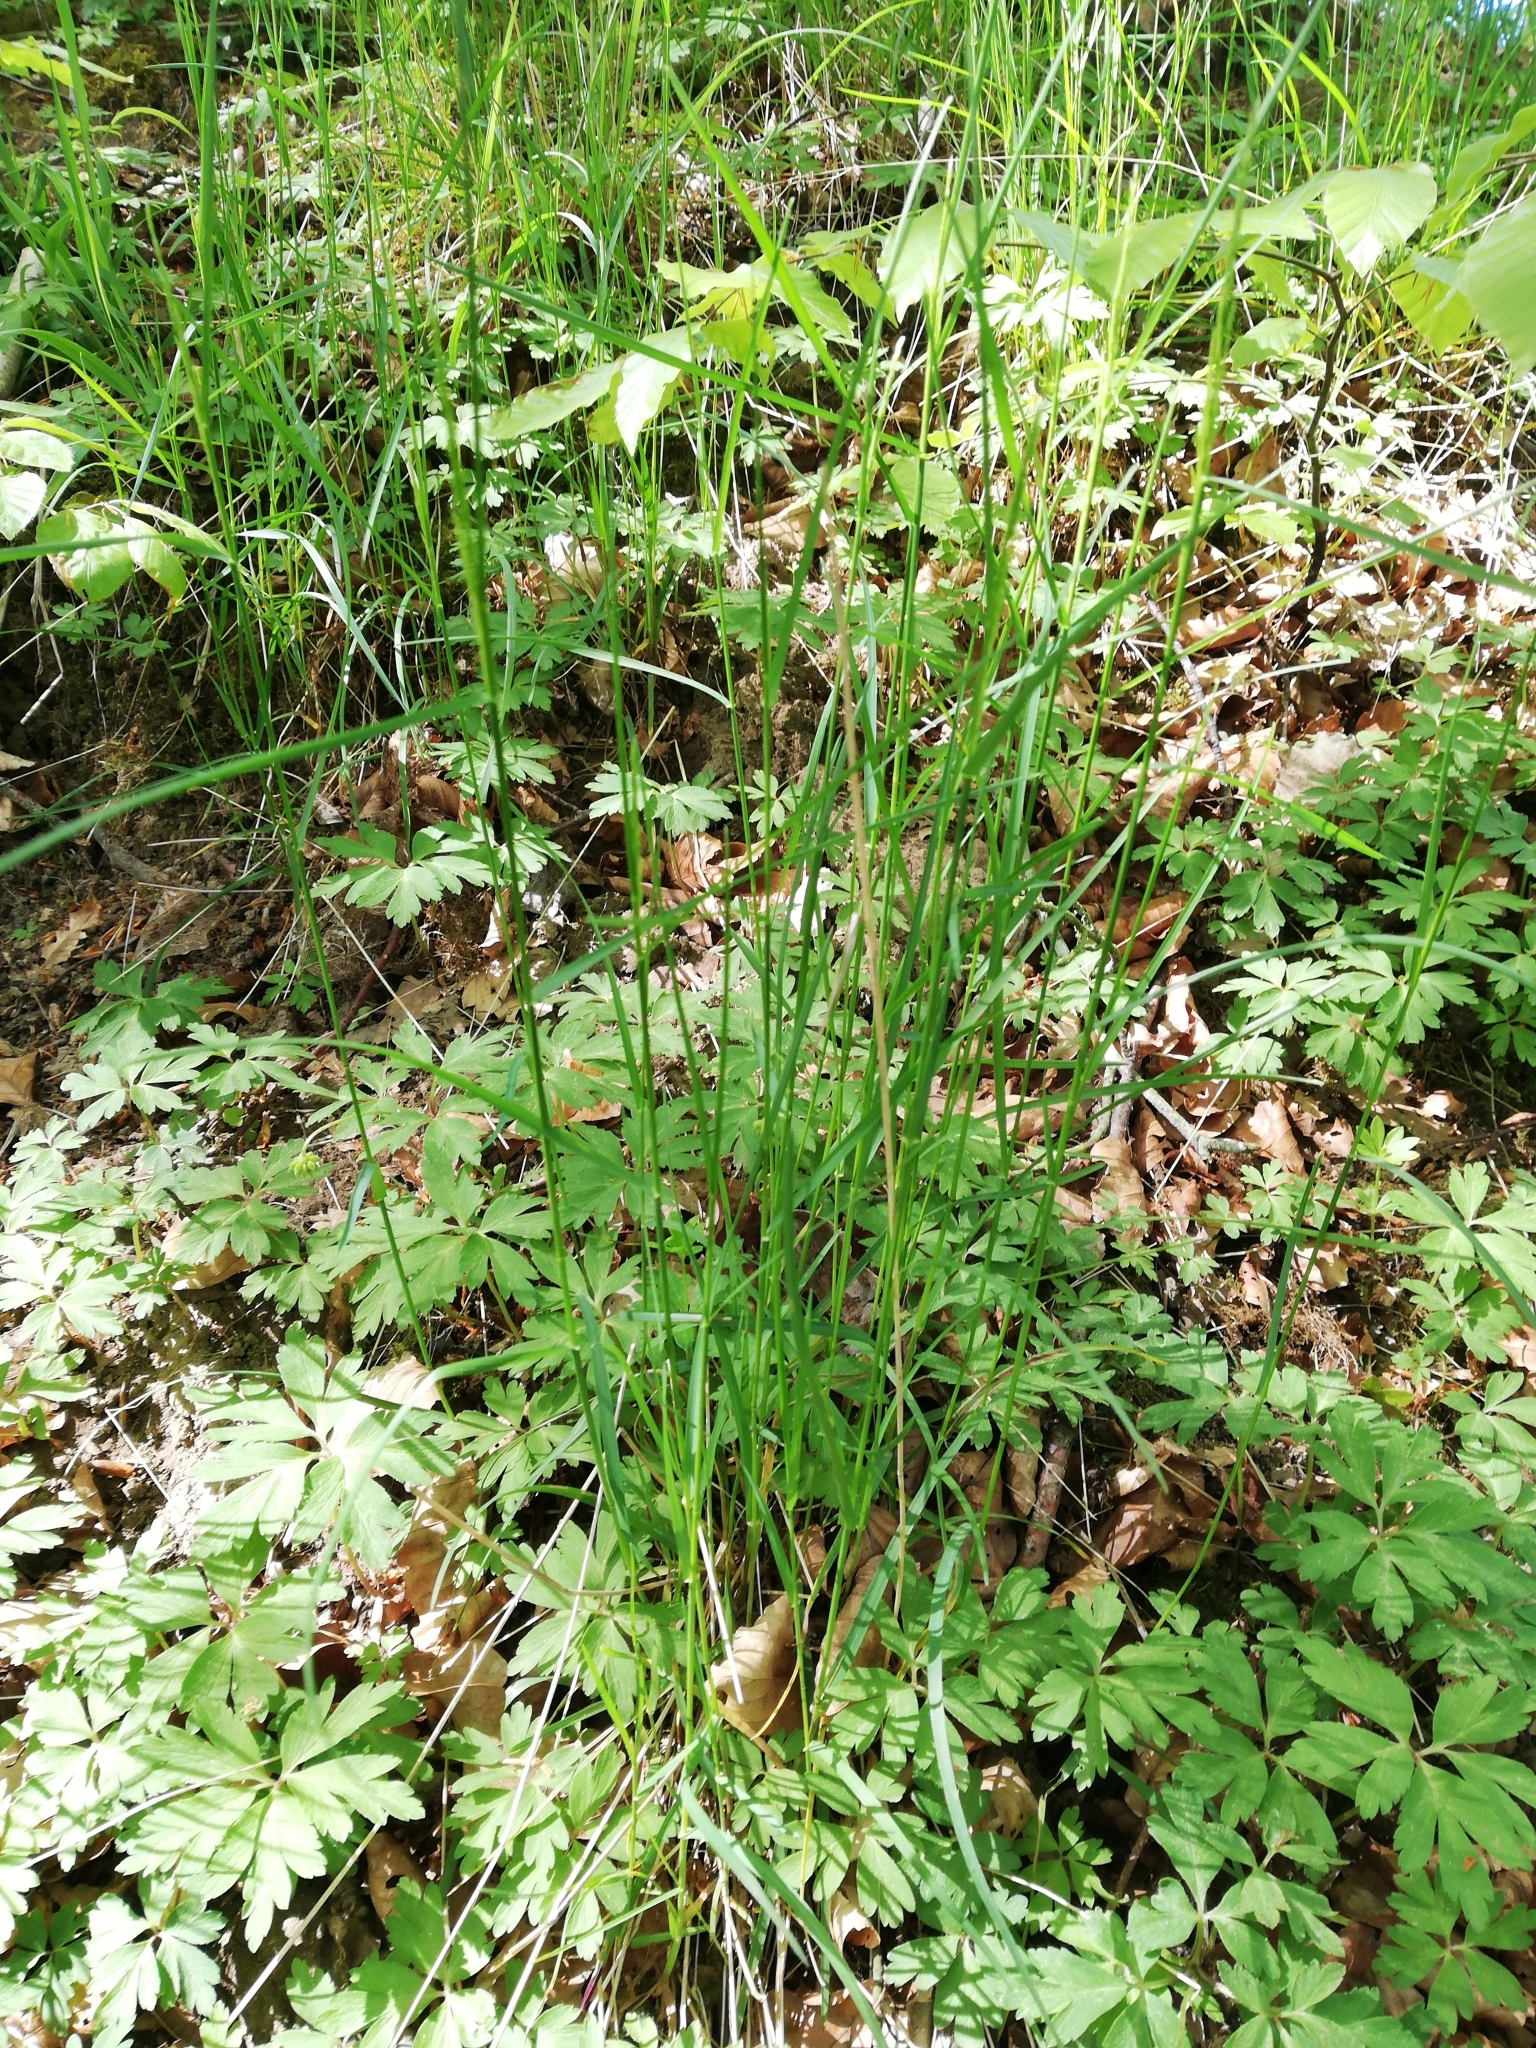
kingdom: Plantae
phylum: Tracheophyta
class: Liliopsida
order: Poales
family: Poaceae
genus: Poa
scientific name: Poa nemoralis
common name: Wood bluegrass
